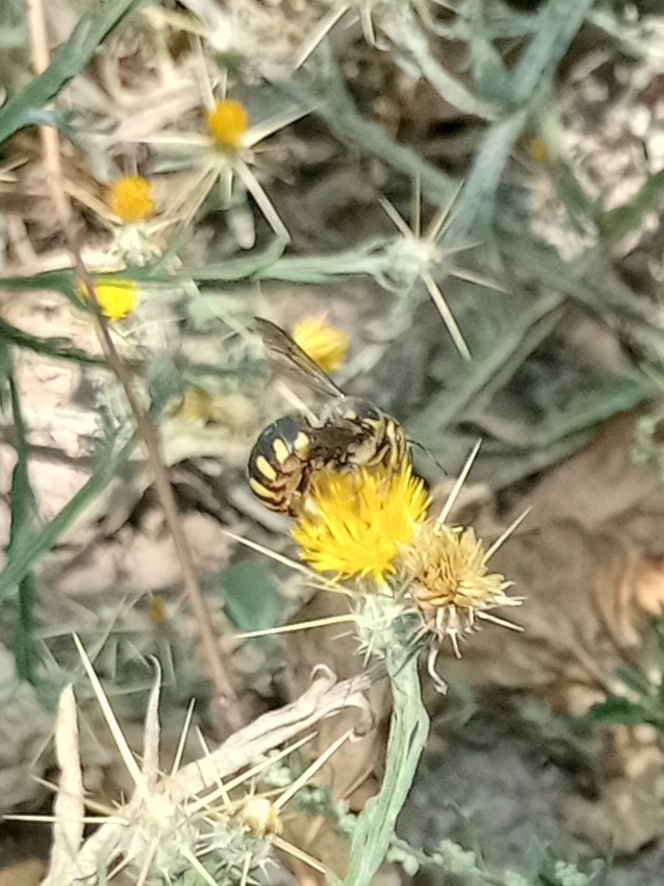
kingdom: Animalia
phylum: Arthropoda
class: Insecta
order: Hymenoptera
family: Megachilidae
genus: Anthidium
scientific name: Anthidium florentinum
